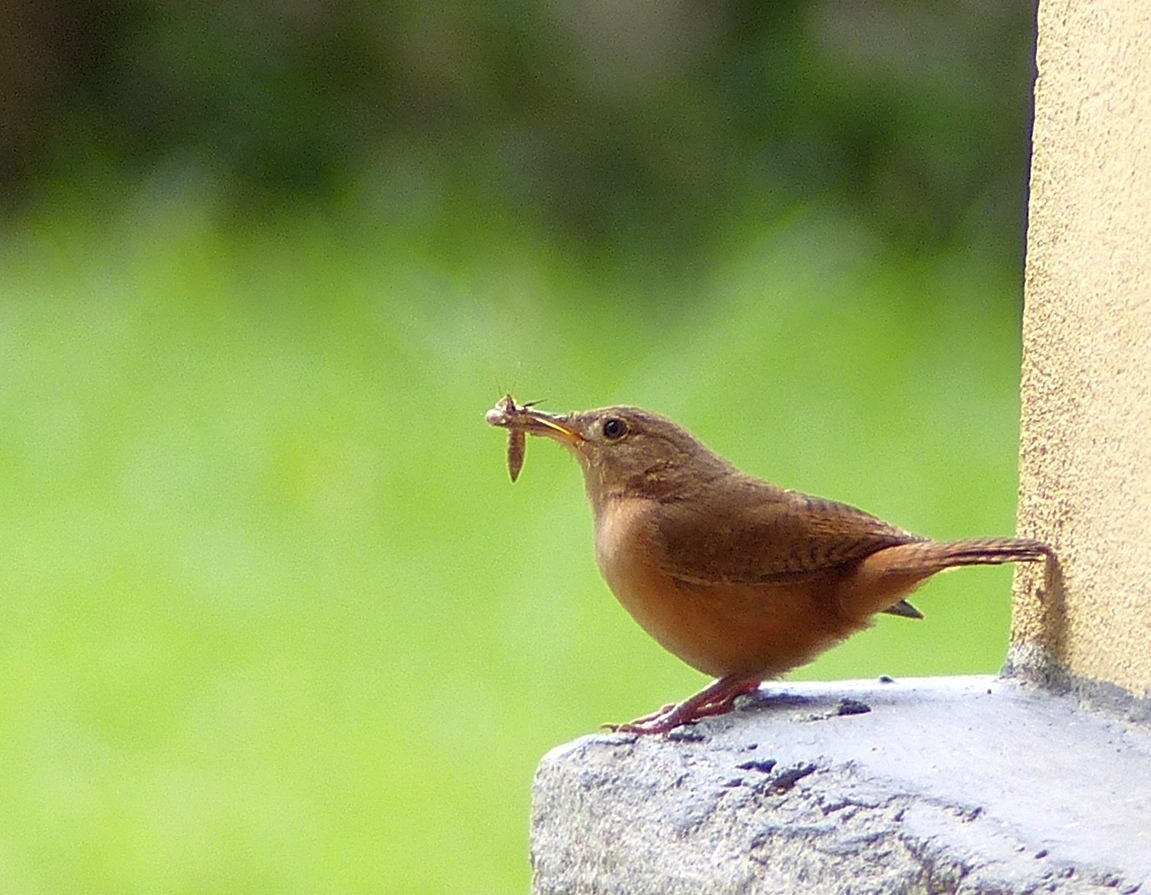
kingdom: Animalia
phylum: Chordata
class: Aves
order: Passeriformes
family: Troglodytidae
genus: Troglodytes
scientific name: Troglodytes aedon
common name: House wren
